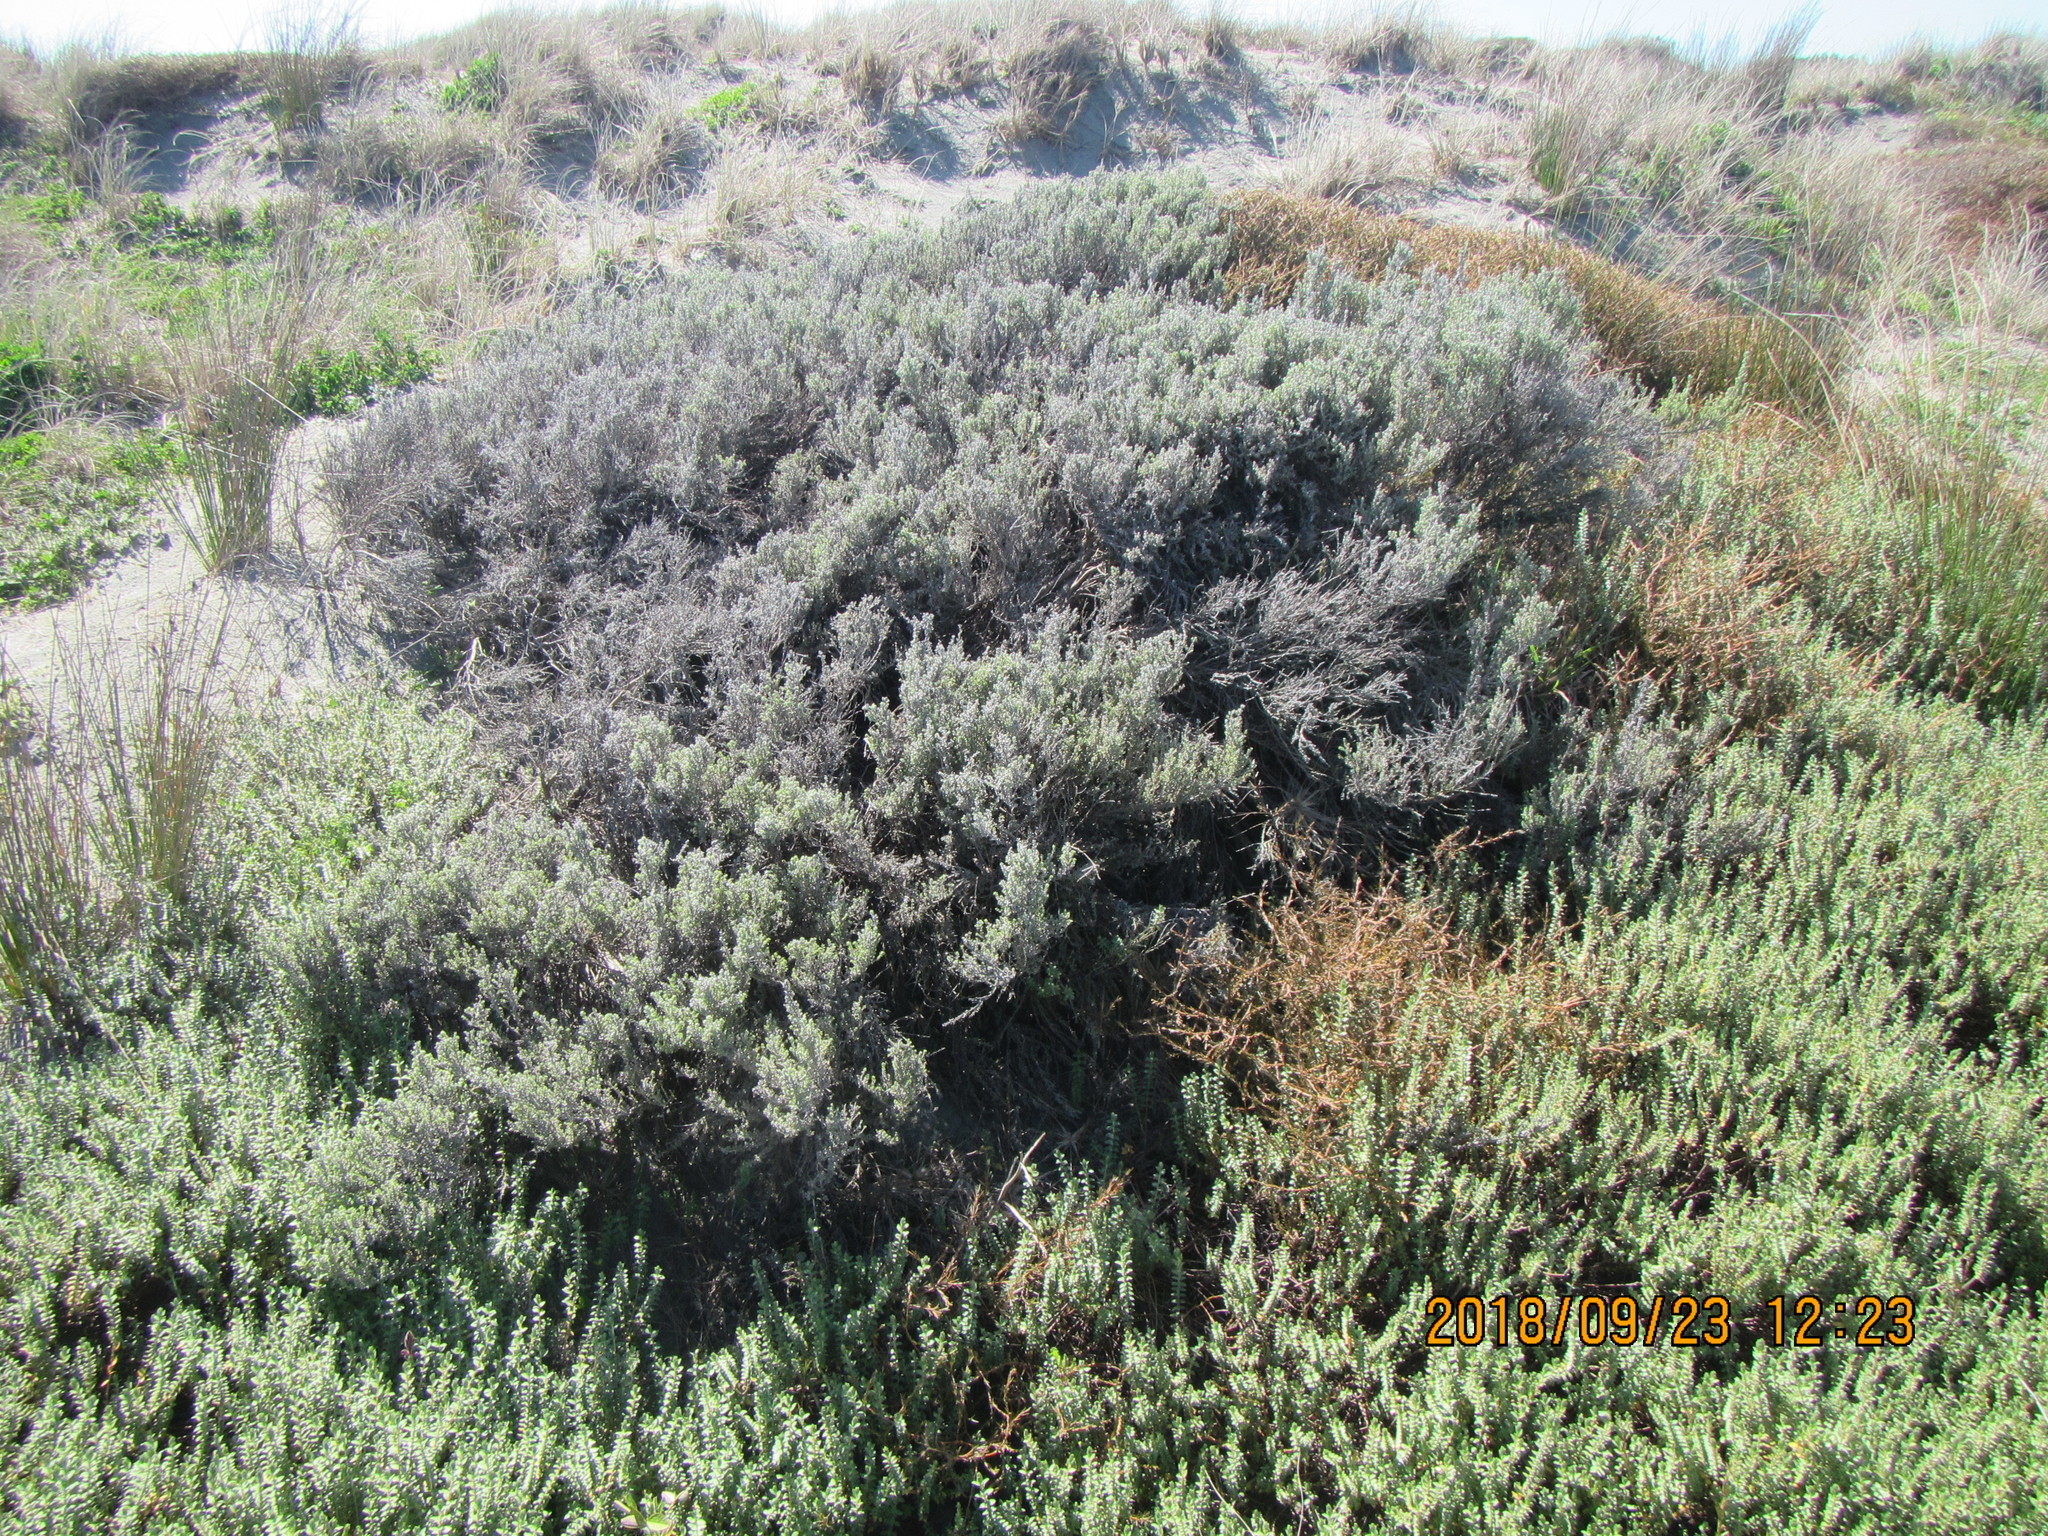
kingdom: Plantae
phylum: Tracheophyta
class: Magnoliopsida
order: Asterales
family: Asteraceae
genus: Ozothamnus
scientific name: Ozothamnus leptophyllus
